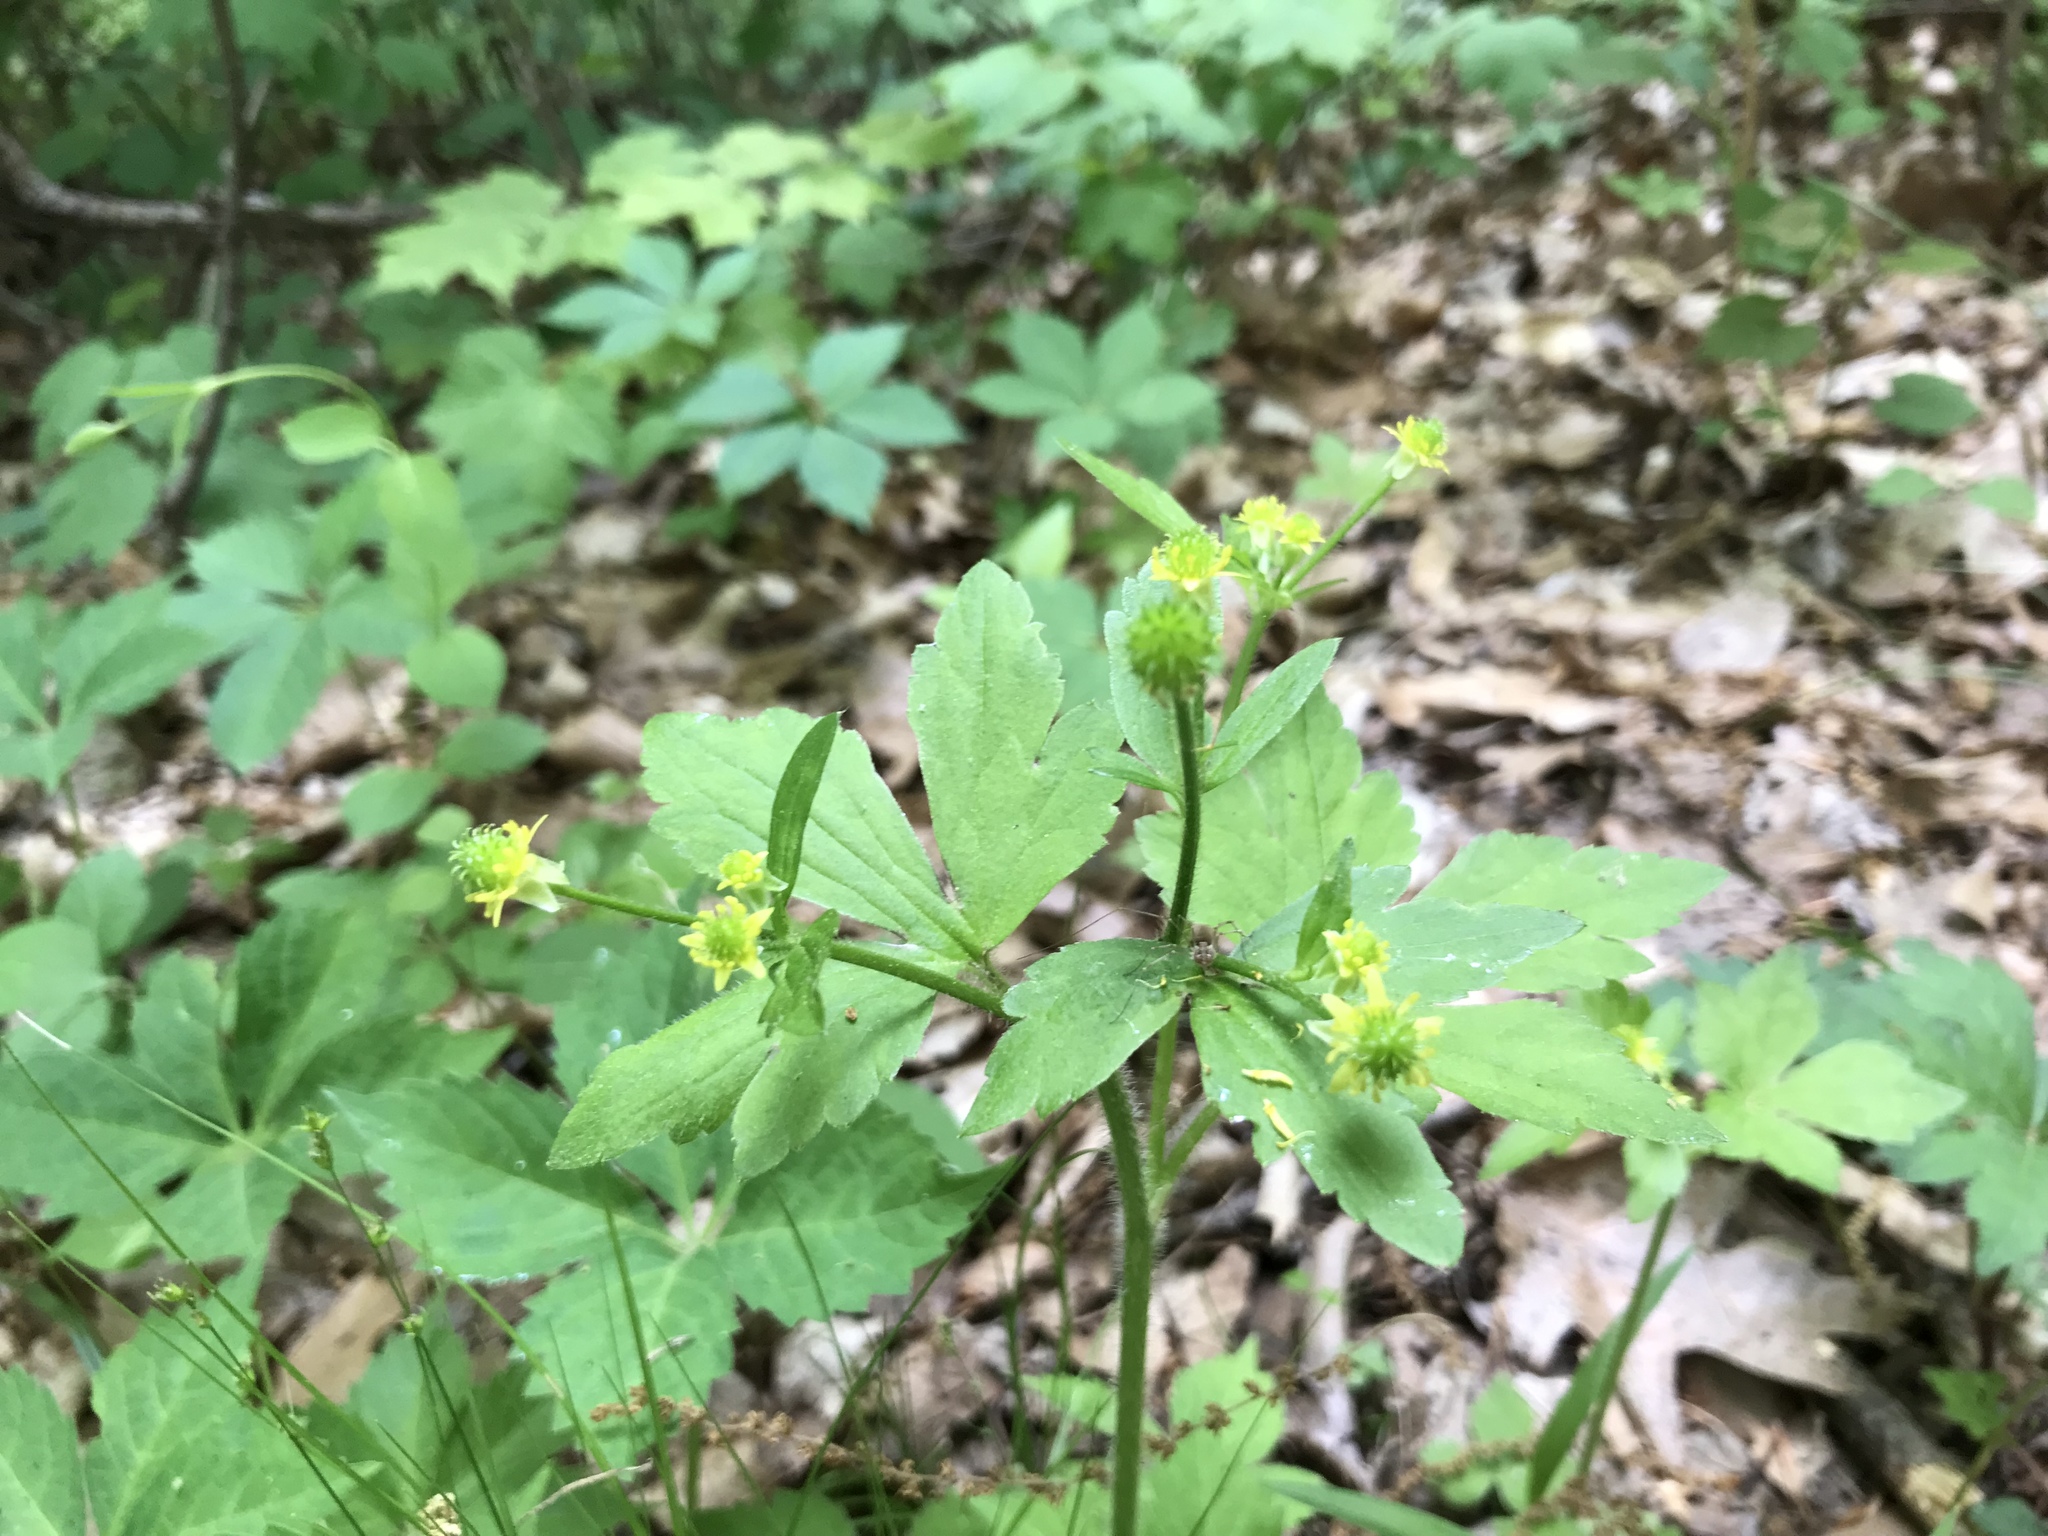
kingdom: Plantae
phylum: Tracheophyta
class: Magnoliopsida
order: Ranunculales
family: Ranunculaceae
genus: Ranunculus
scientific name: Ranunculus recurvatus
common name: Blisterwort
